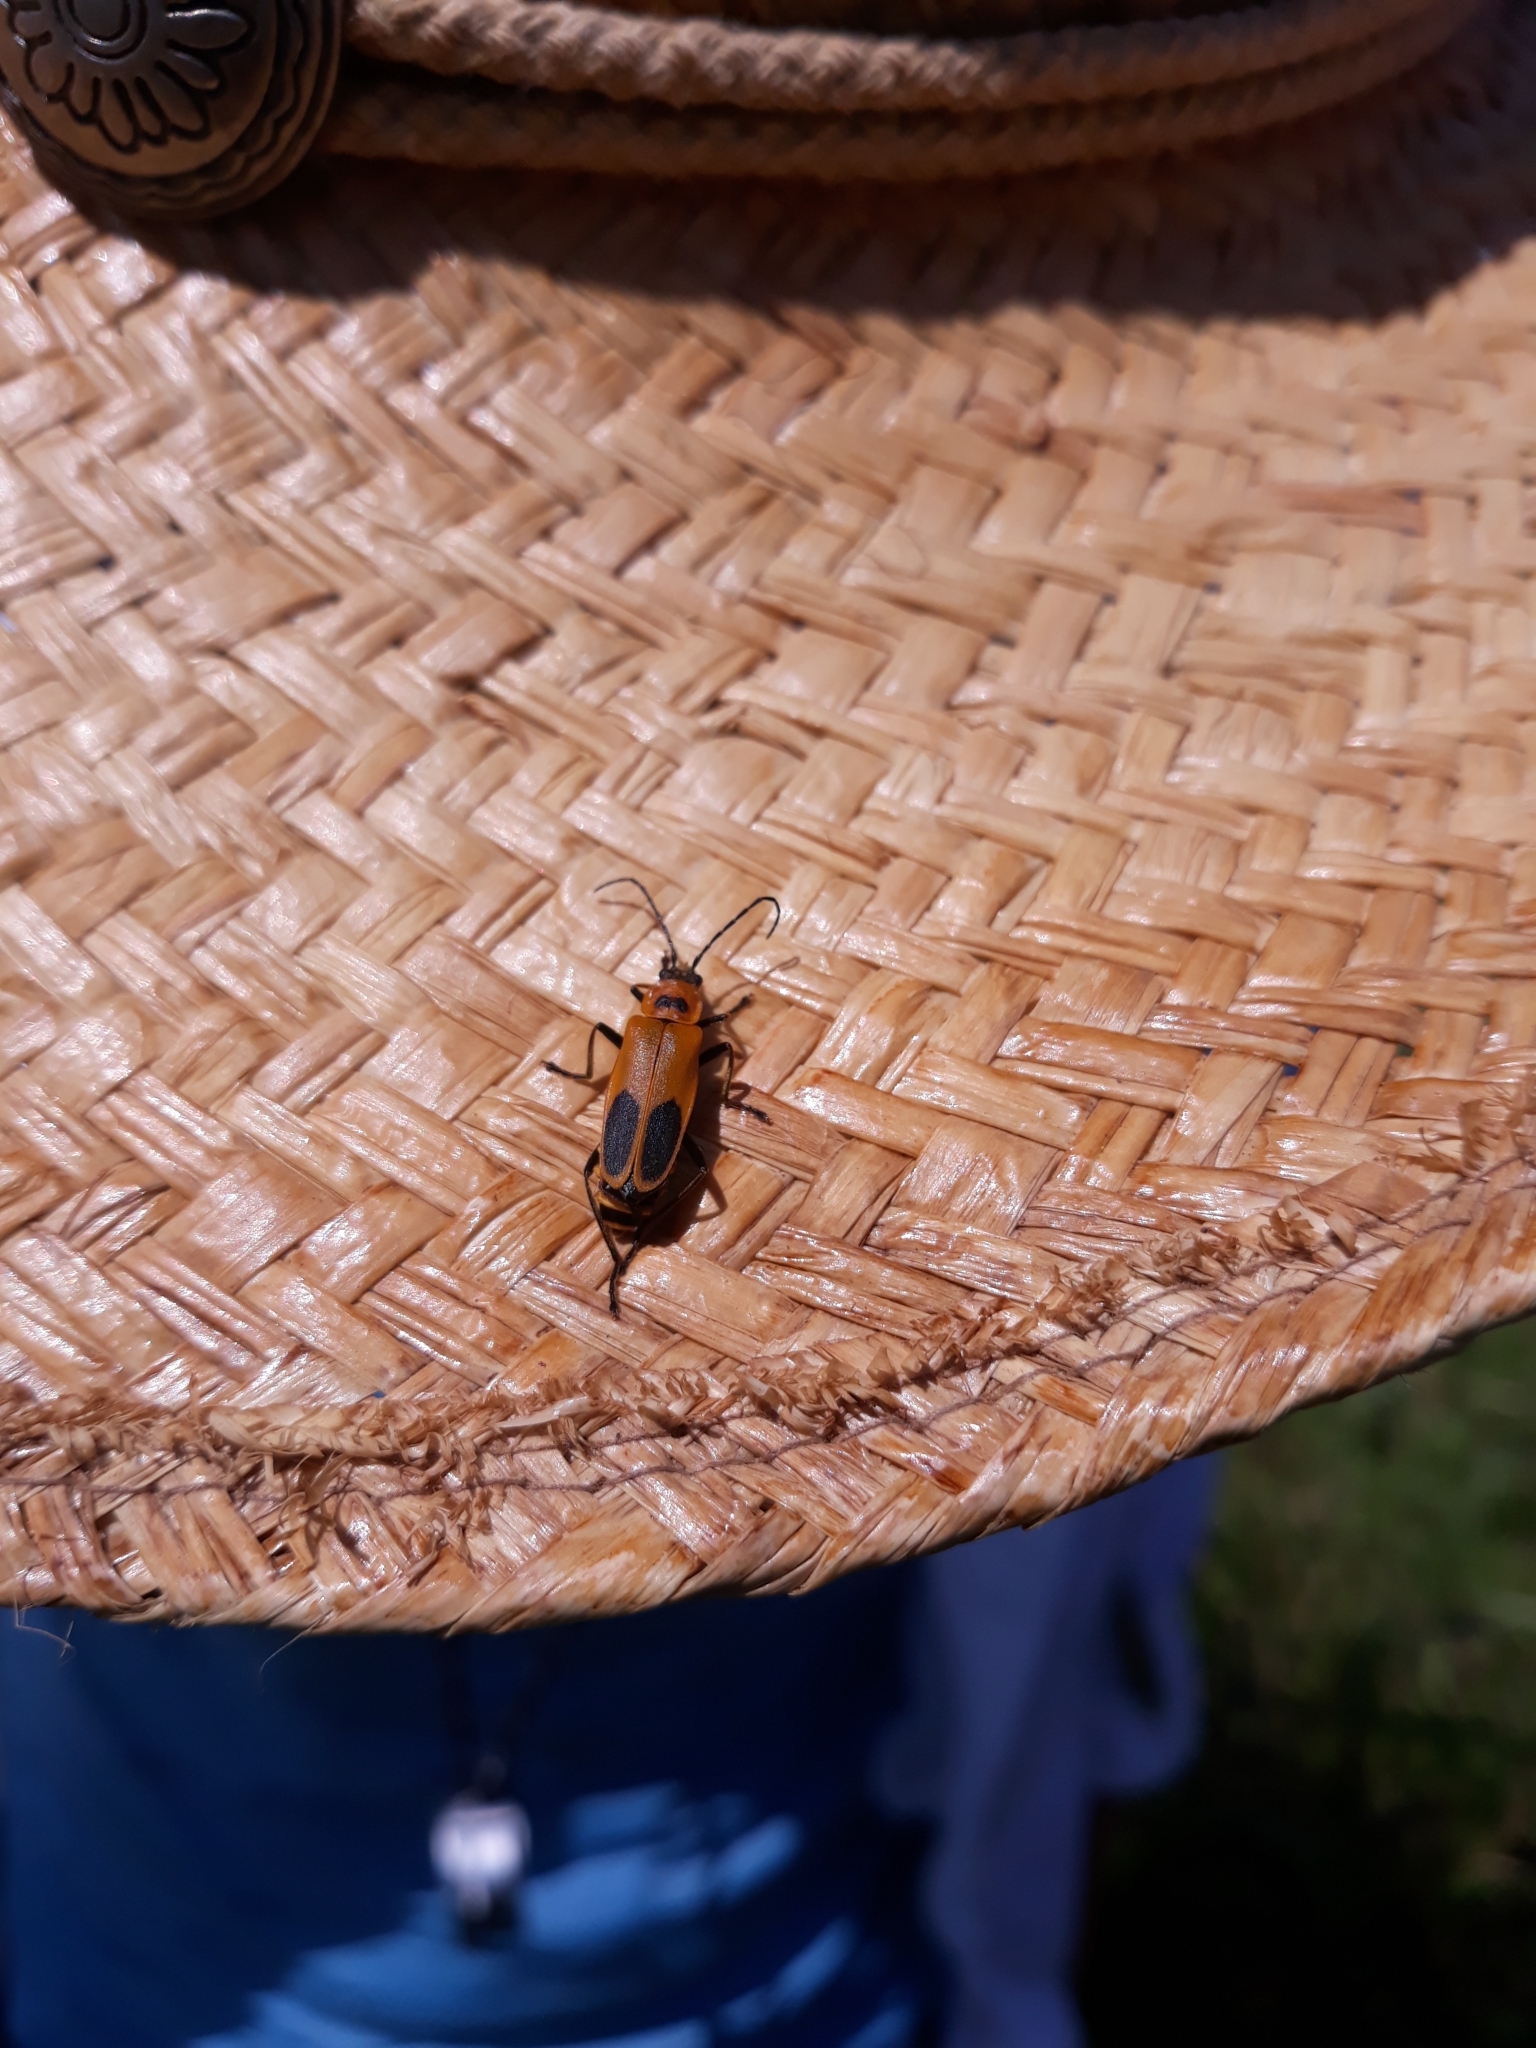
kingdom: Animalia
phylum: Arthropoda
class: Insecta
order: Coleoptera
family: Cantharidae
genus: Chauliognathus
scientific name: Chauliognathus pensylvanicus
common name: Goldenrod soldier beetle
